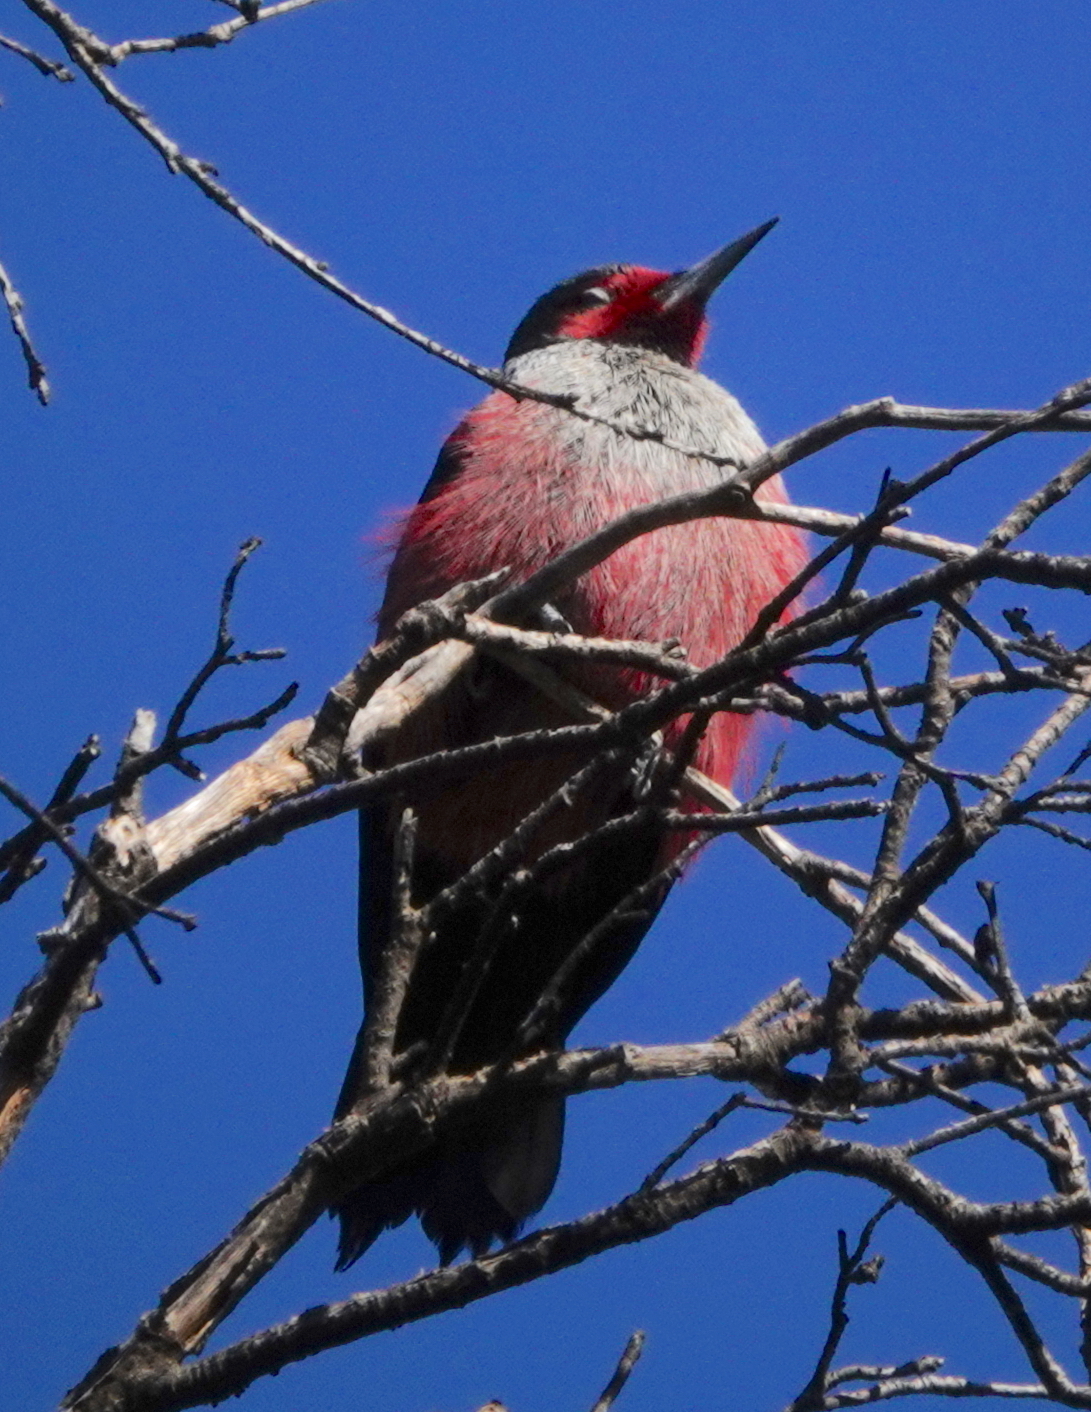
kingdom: Animalia
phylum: Chordata
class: Aves
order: Piciformes
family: Picidae
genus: Melanerpes
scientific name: Melanerpes lewis
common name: Lewis's woodpecker
